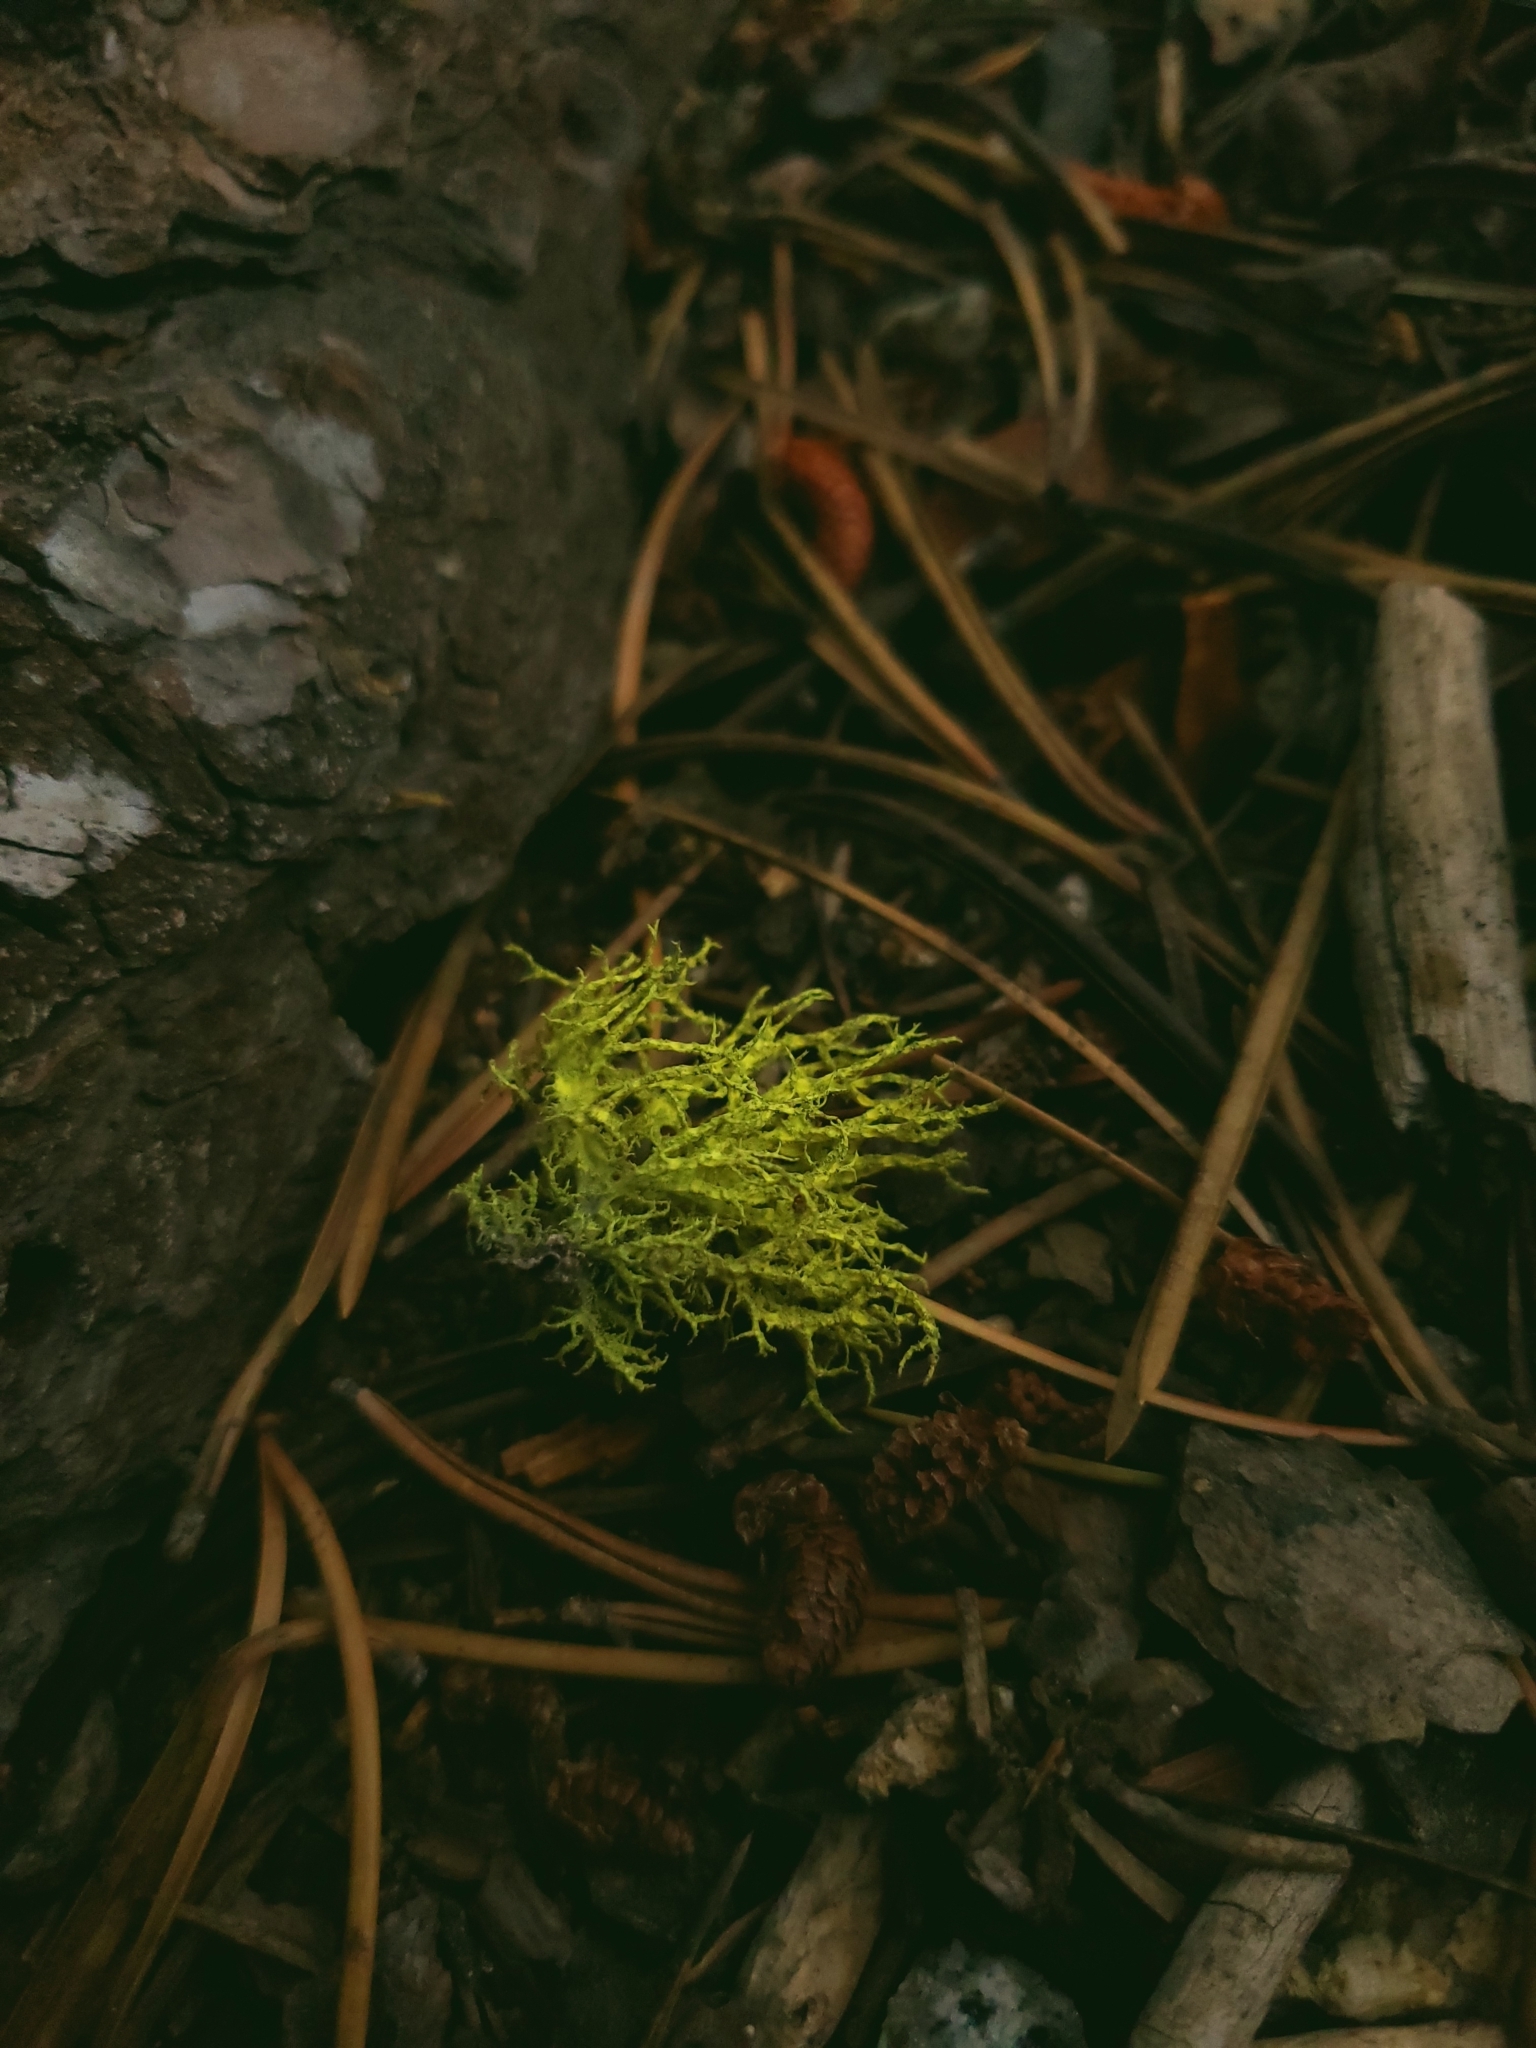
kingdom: Fungi
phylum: Ascomycota
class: Lecanoromycetes
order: Lecanorales
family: Parmeliaceae
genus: Letharia
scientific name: Letharia vulpina
